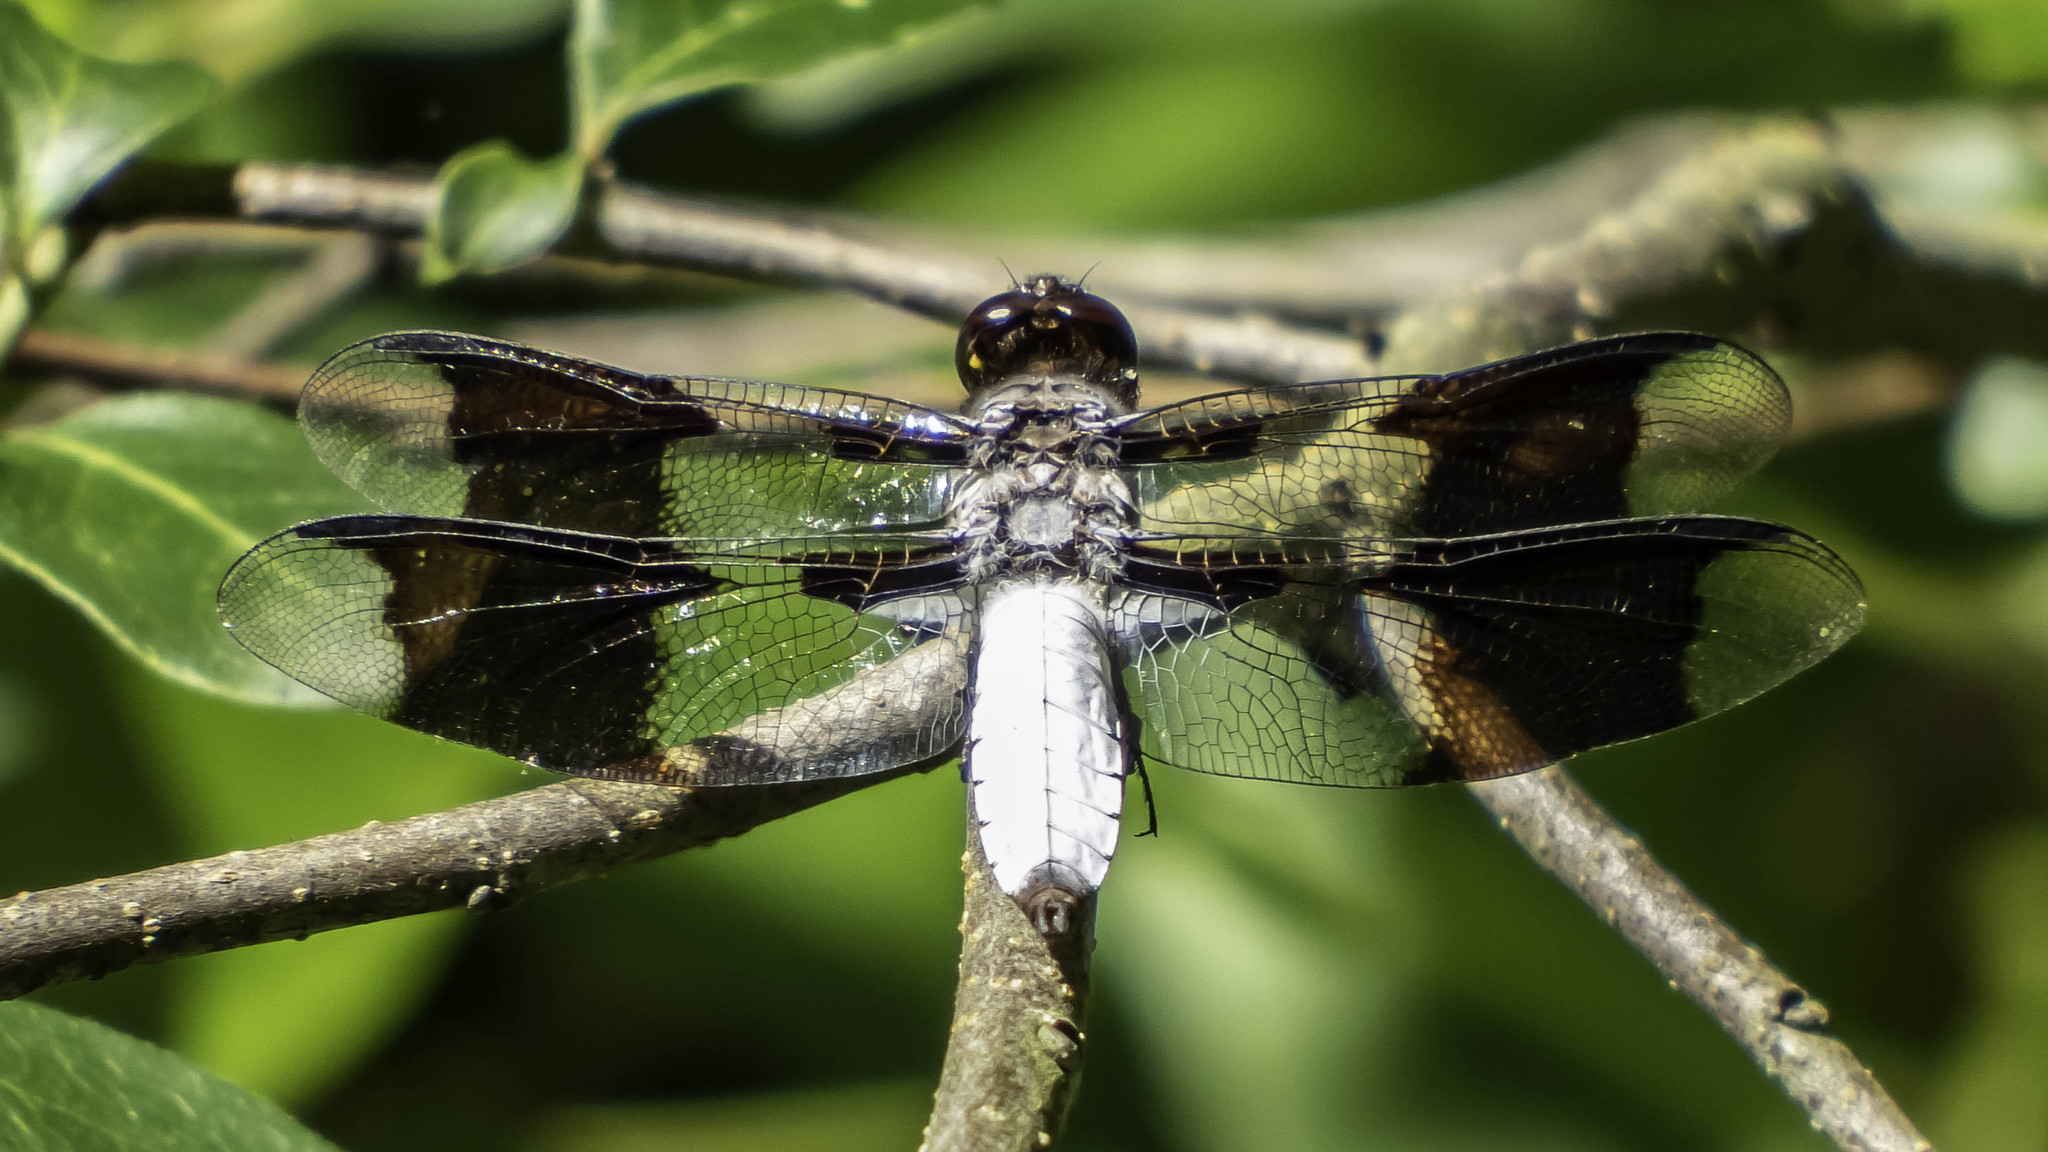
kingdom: Animalia
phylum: Arthropoda
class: Insecta
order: Odonata
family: Libellulidae
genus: Plathemis
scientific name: Plathemis lydia
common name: Common whitetail
